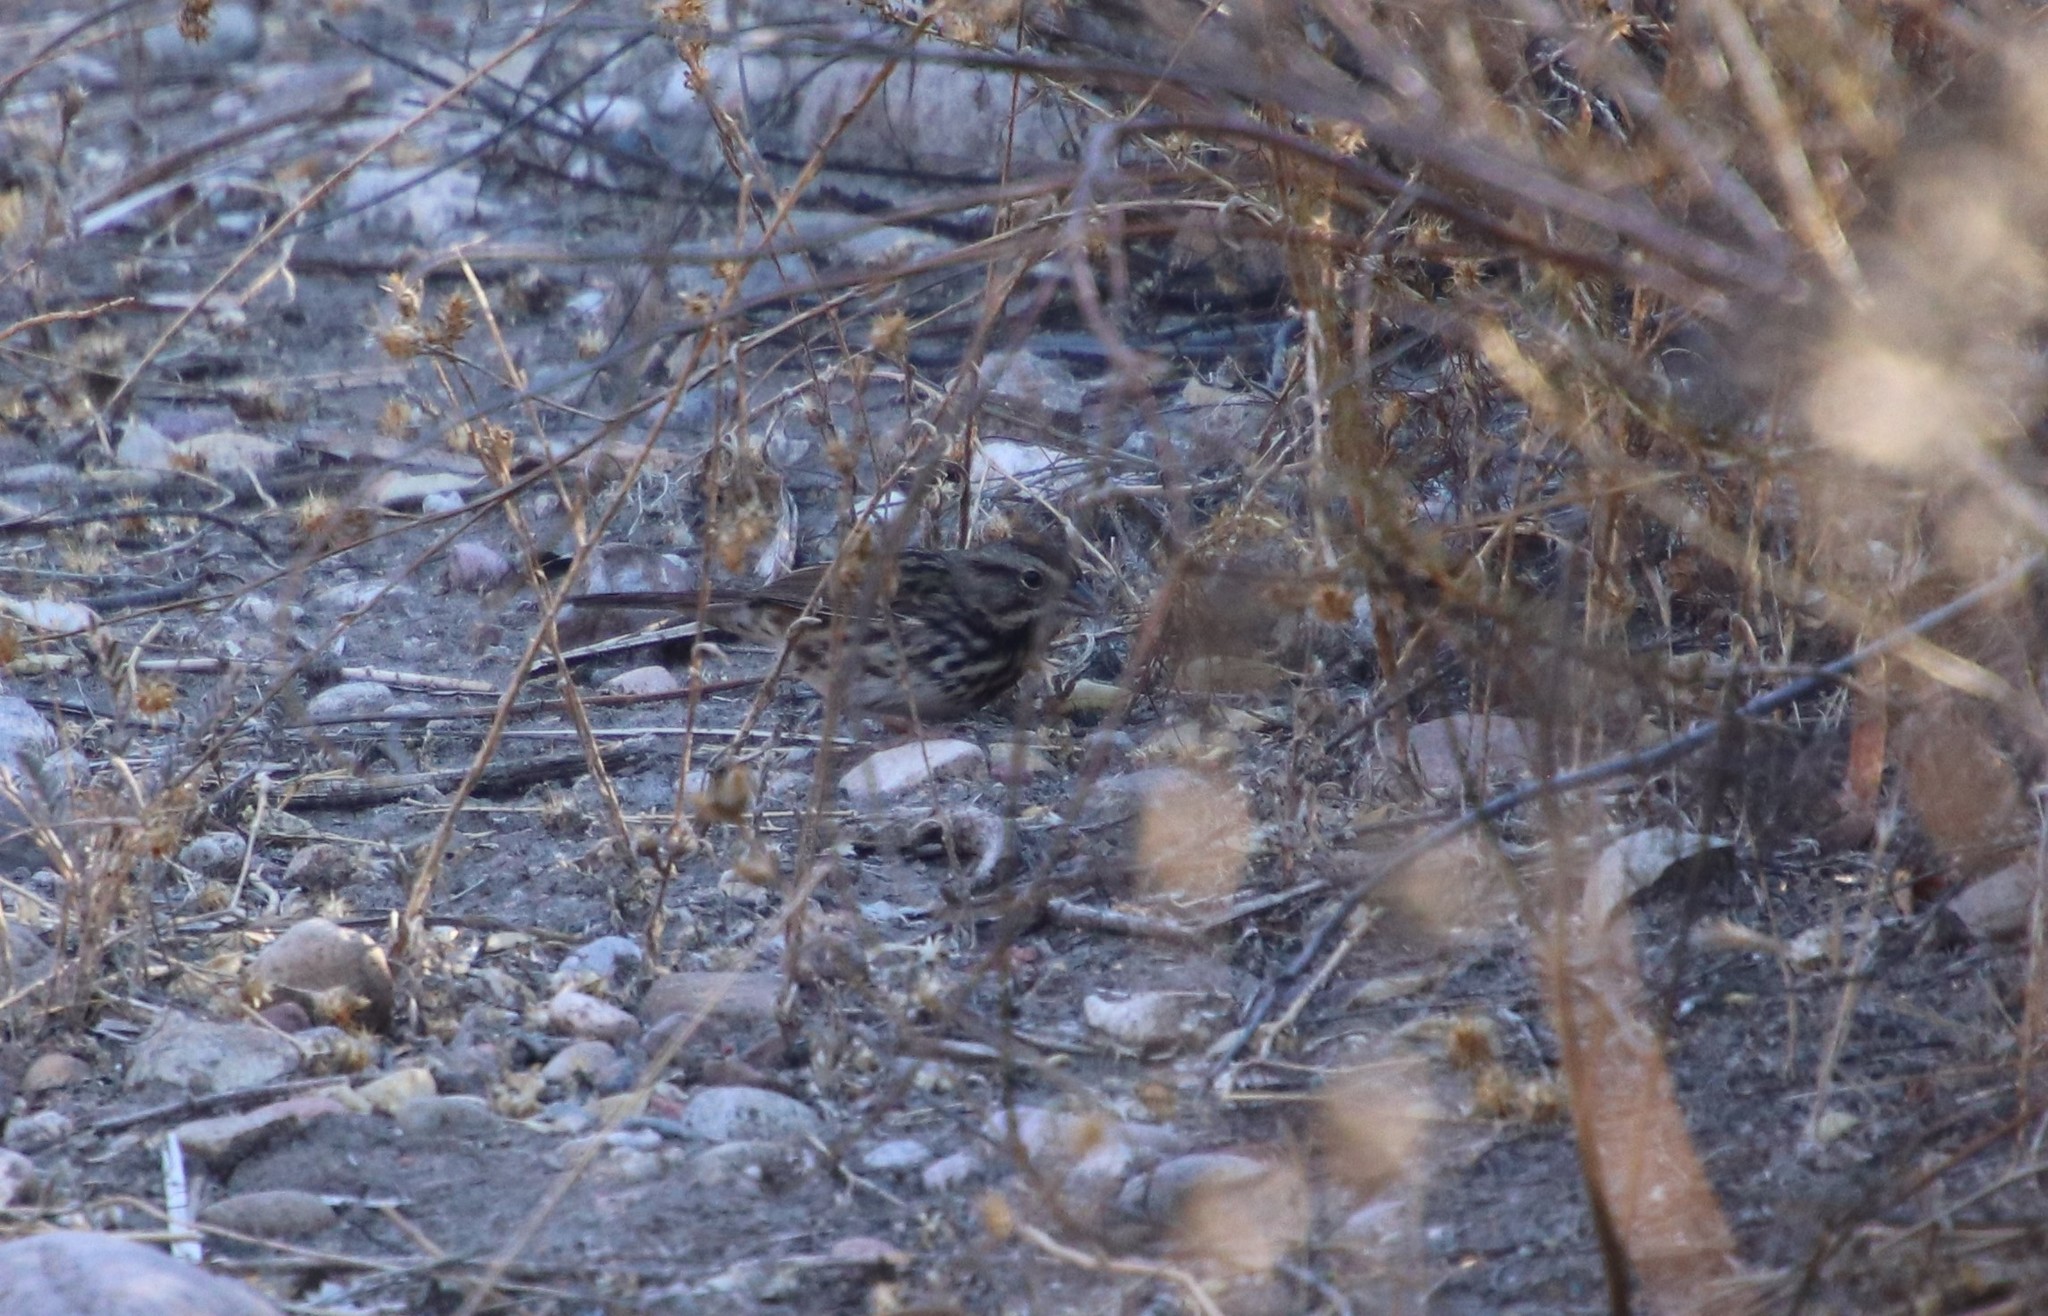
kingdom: Animalia
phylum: Chordata
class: Aves
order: Passeriformes
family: Passerellidae
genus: Melospiza
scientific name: Melospiza melodia
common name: Song sparrow
